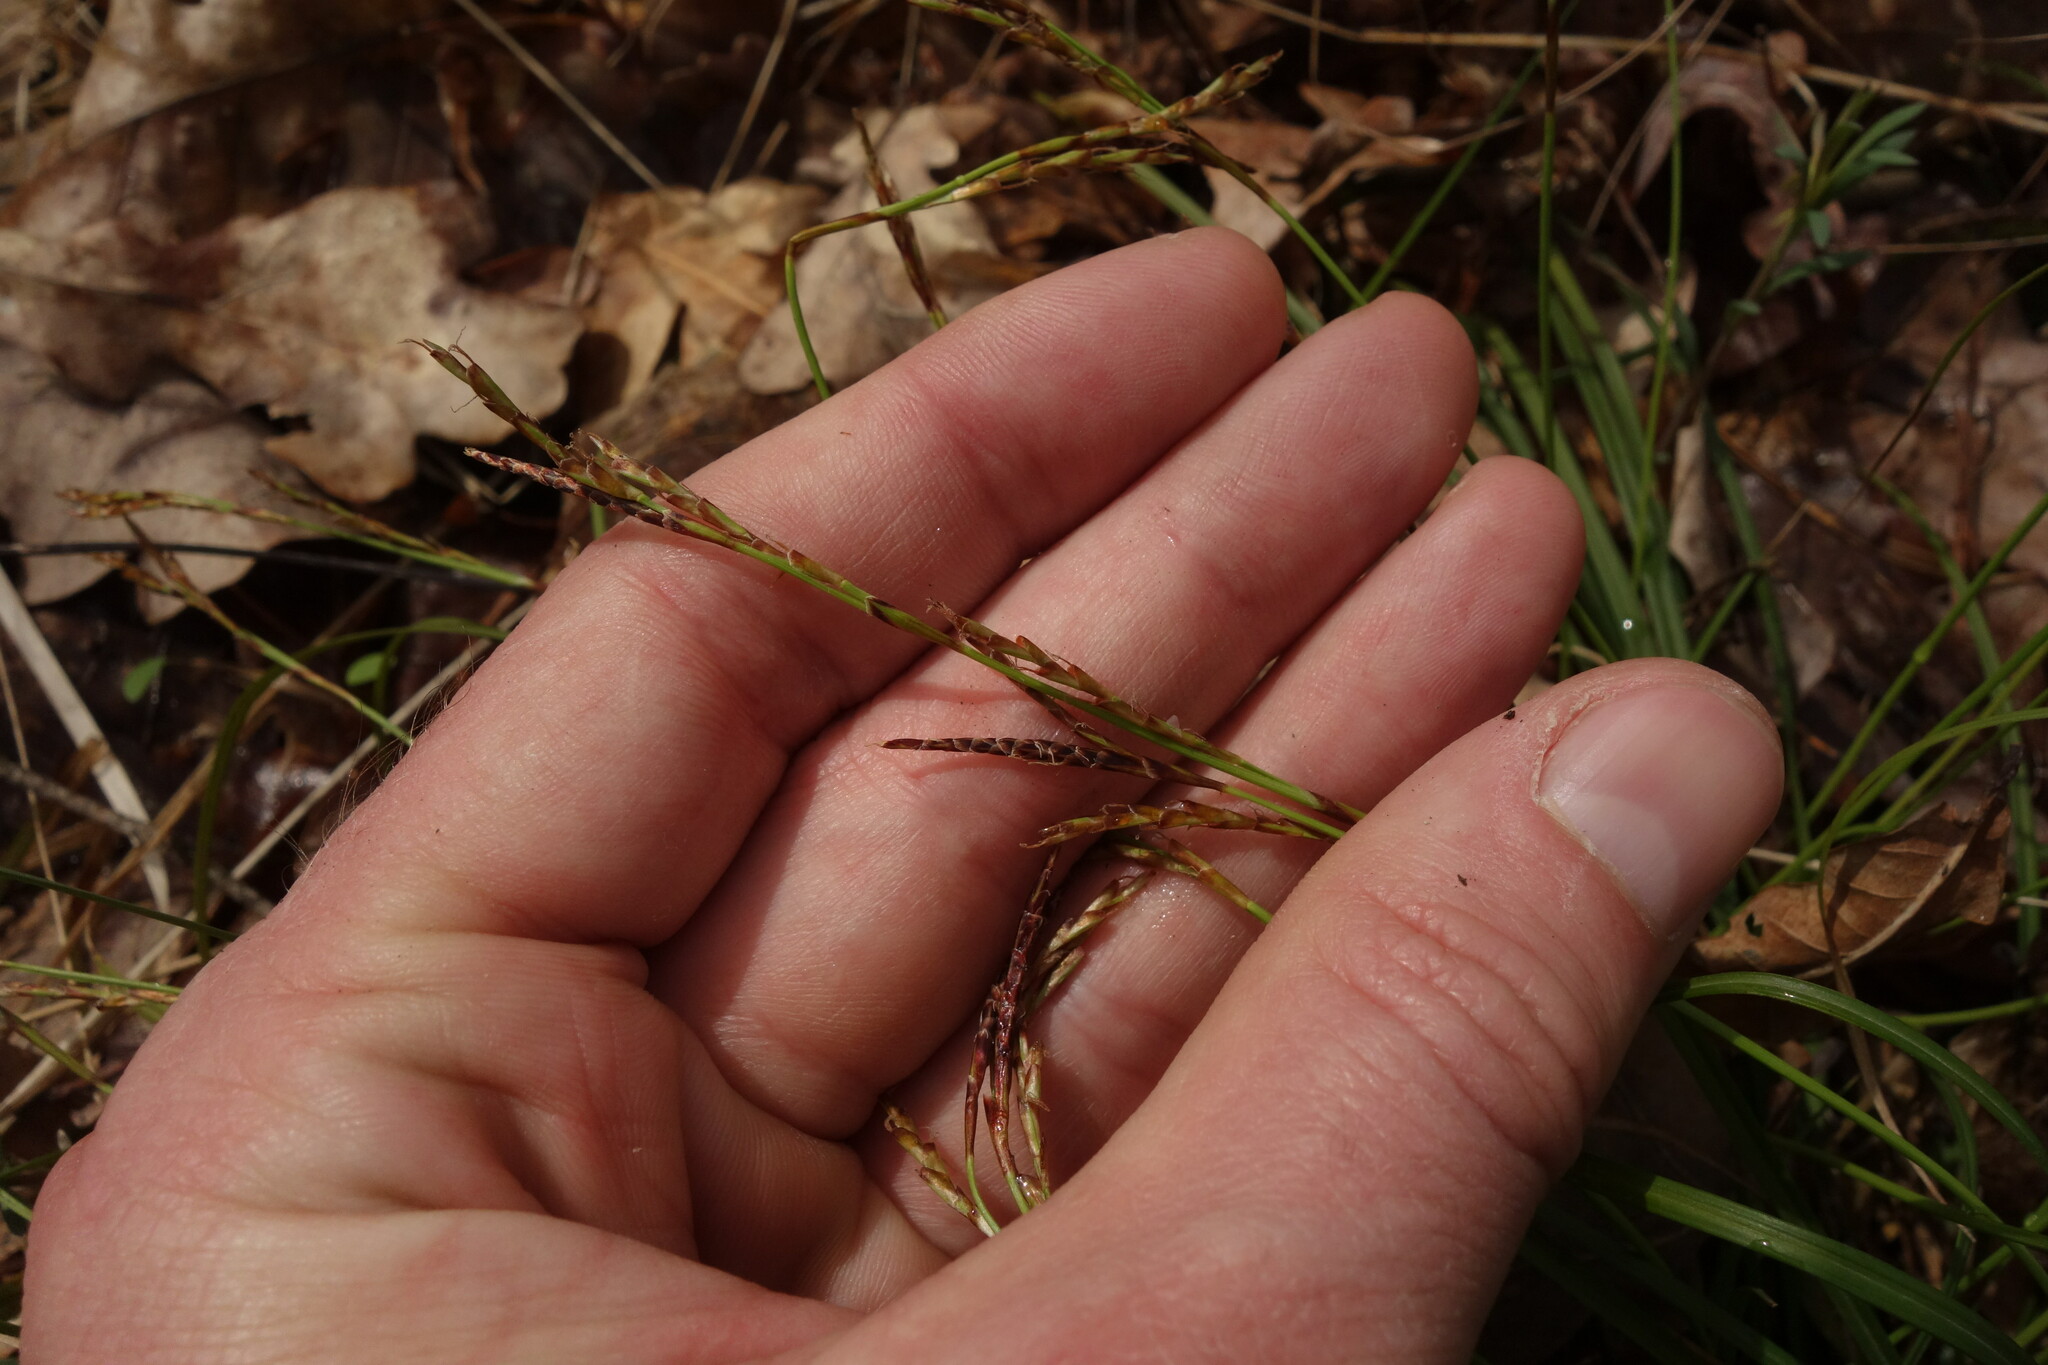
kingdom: Plantae
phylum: Tracheophyta
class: Liliopsida
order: Poales
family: Cyperaceae
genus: Carex
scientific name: Carex digitata
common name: Fingered sedge
